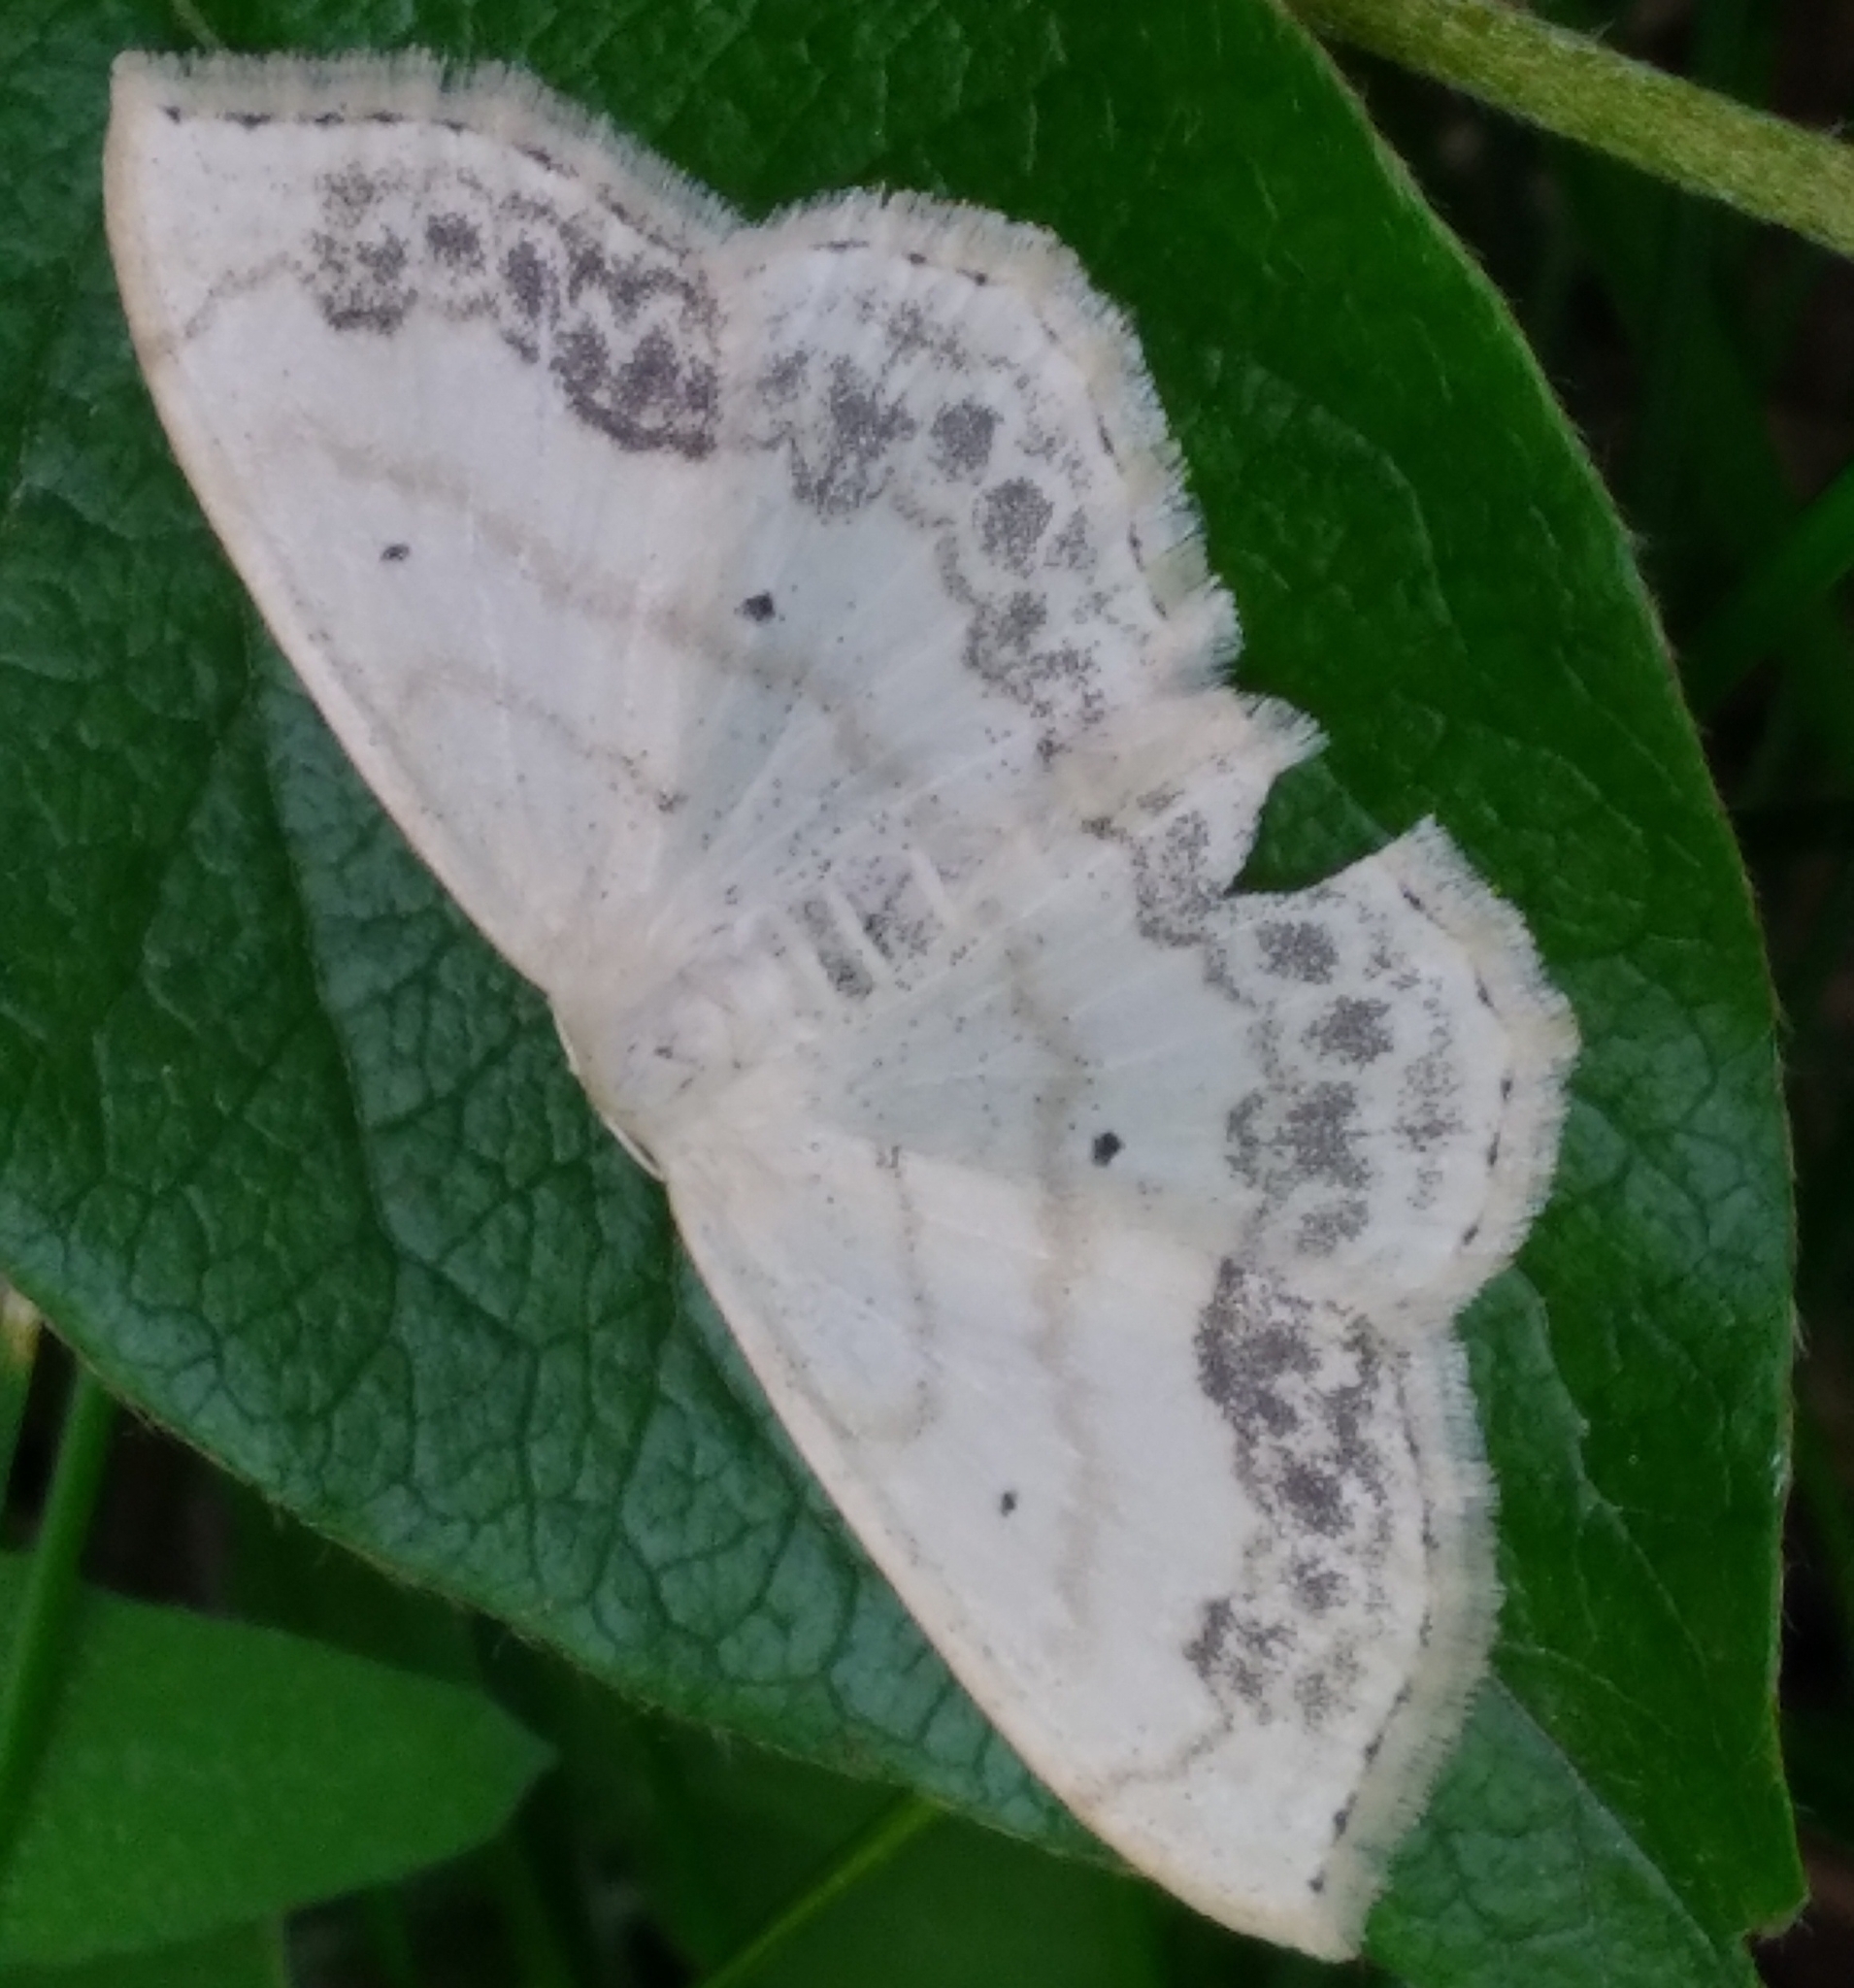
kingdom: Animalia
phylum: Arthropoda
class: Insecta
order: Lepidoptera
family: Geometridae
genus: Scopula
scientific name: Scopula limboundata
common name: Large lace border
